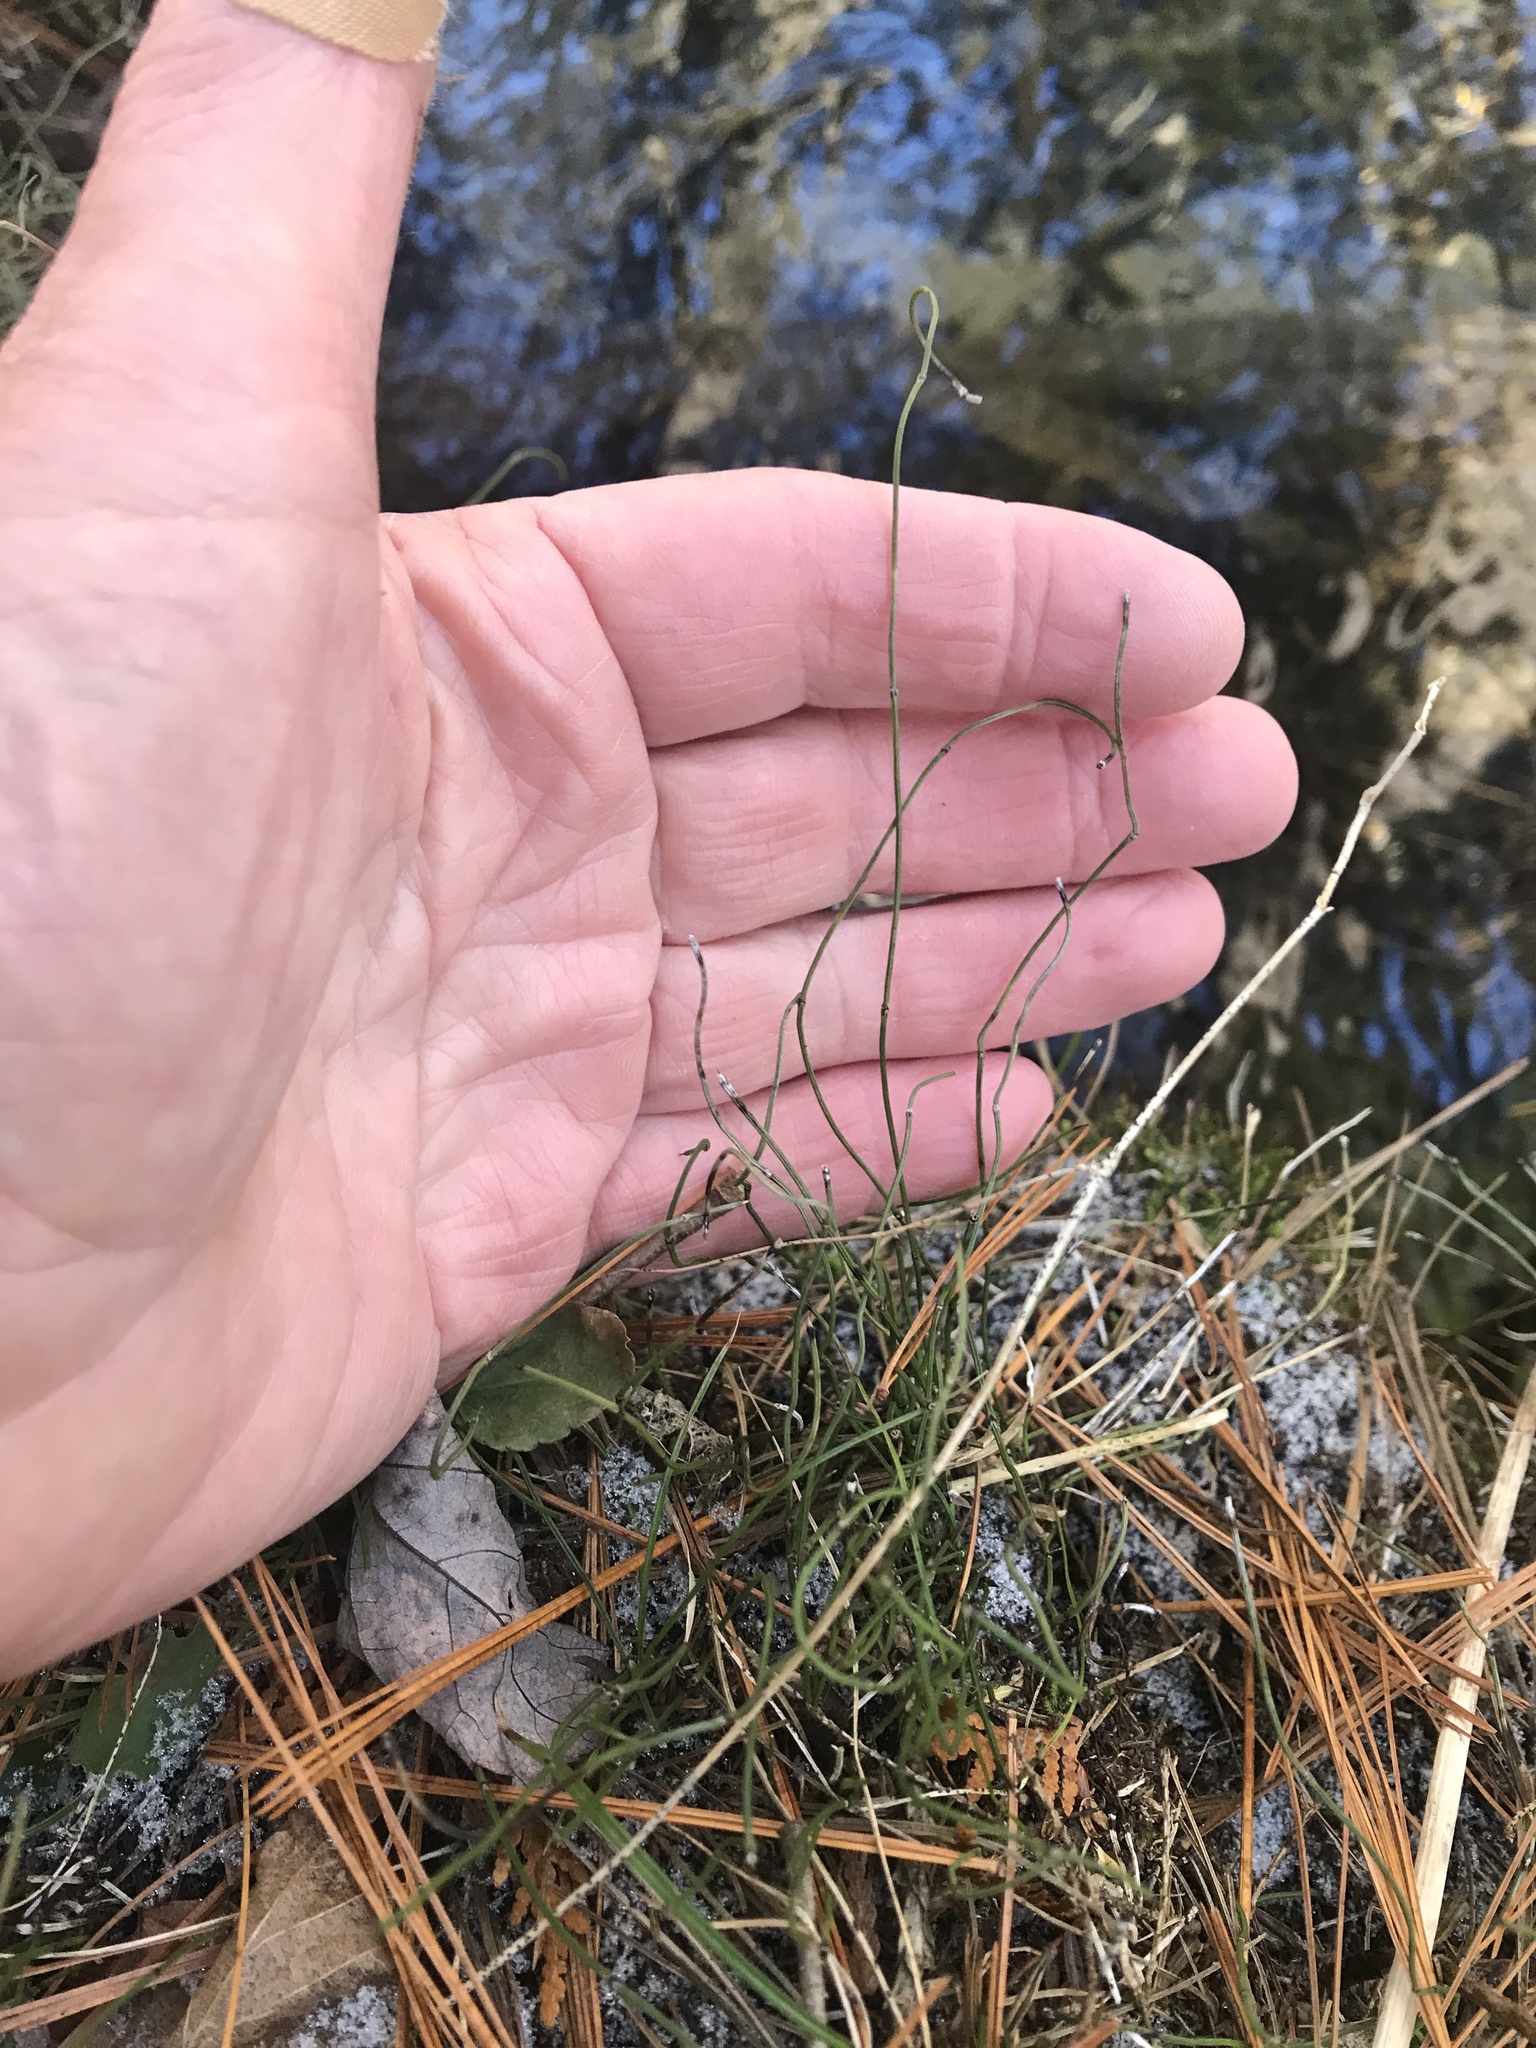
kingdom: Plantae
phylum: Tracheophyta
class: Polypodiopsida
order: Equisetales
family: Equisetaceae
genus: Equisetum
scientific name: Equisetum scirpoides
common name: Delicate horsetail
